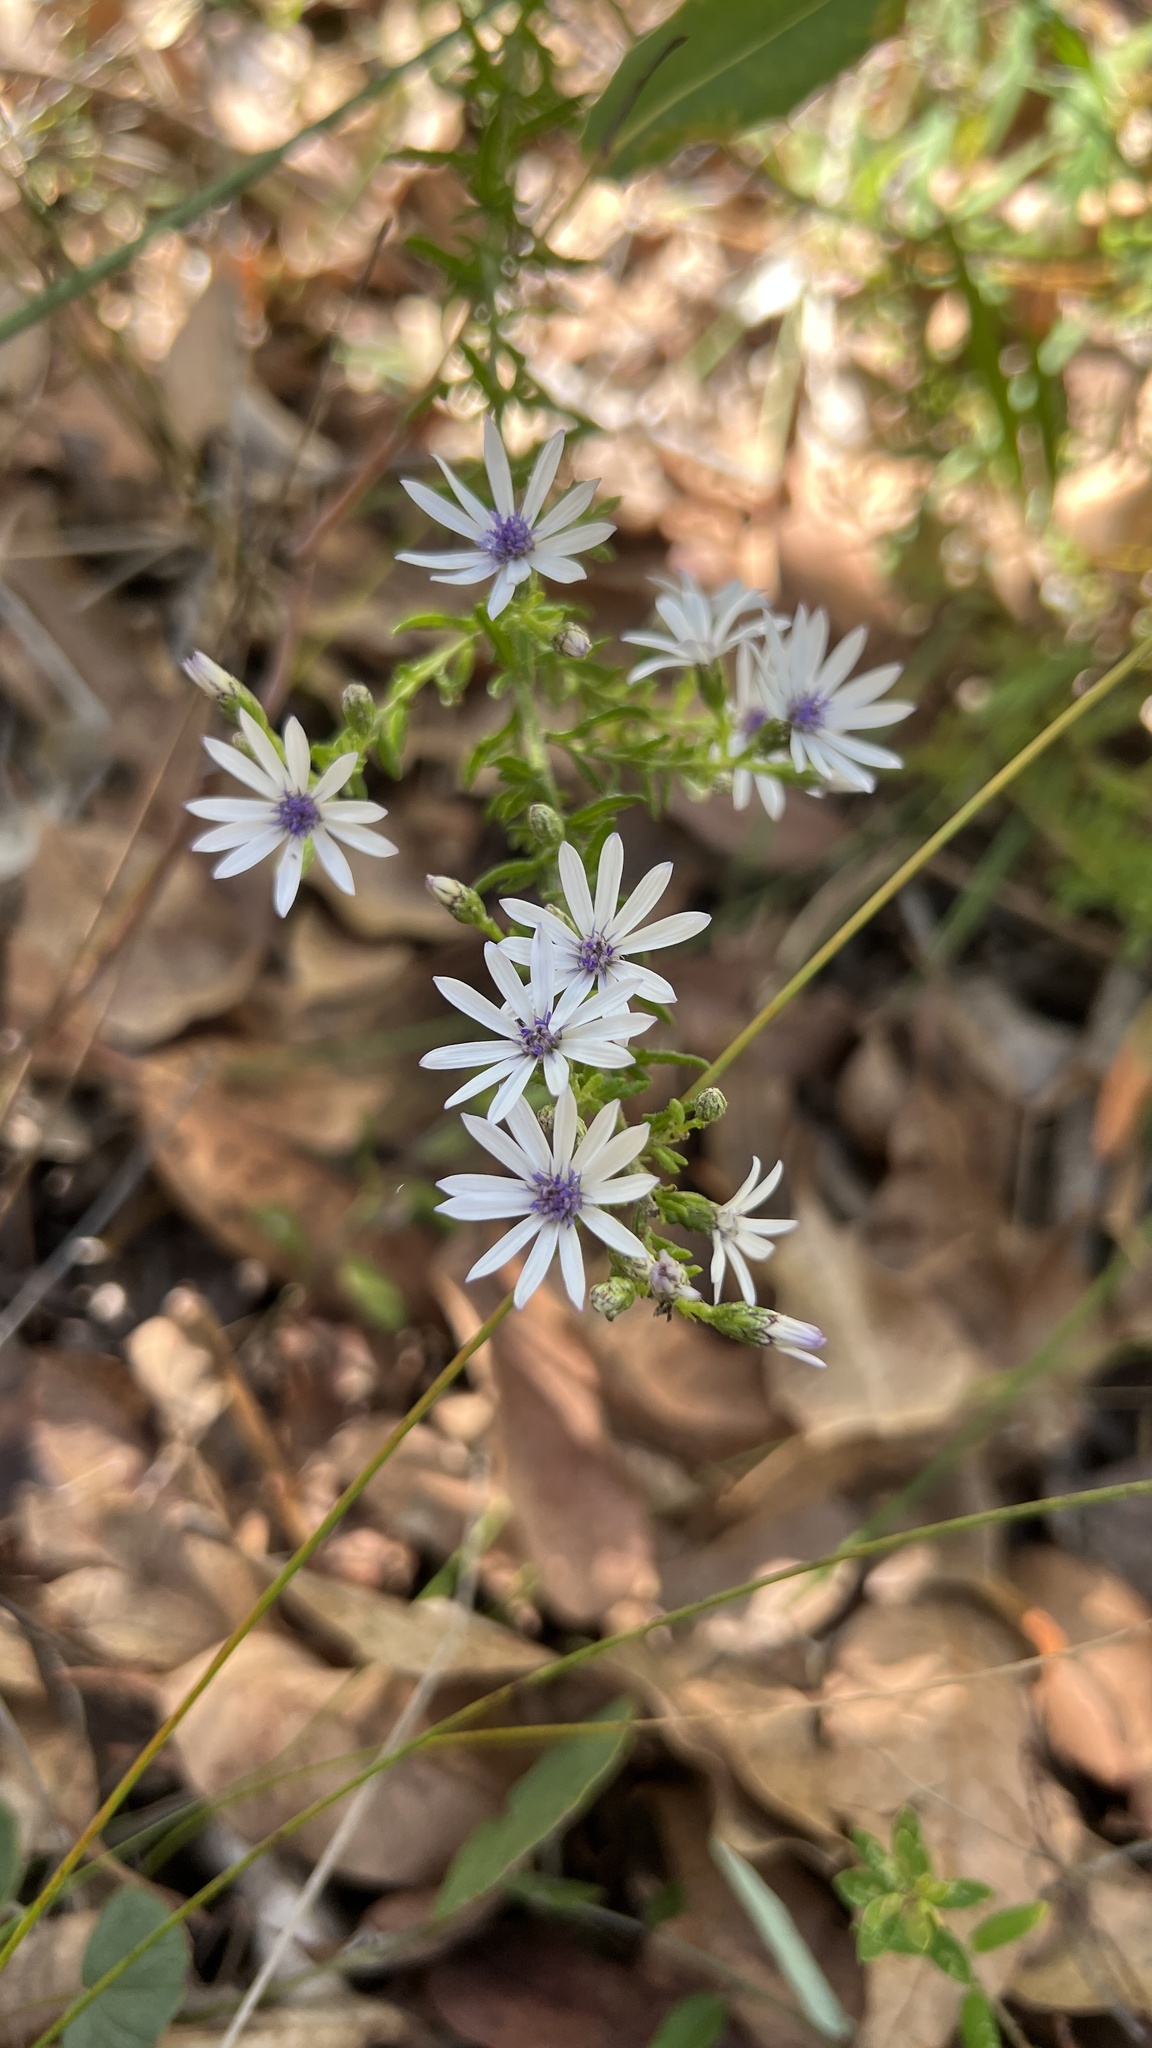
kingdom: Plantae
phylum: Tracheophyta
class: Magnoliopsida
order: Asterales
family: Asteraceae
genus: Olearia
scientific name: Olearia paucidentata
